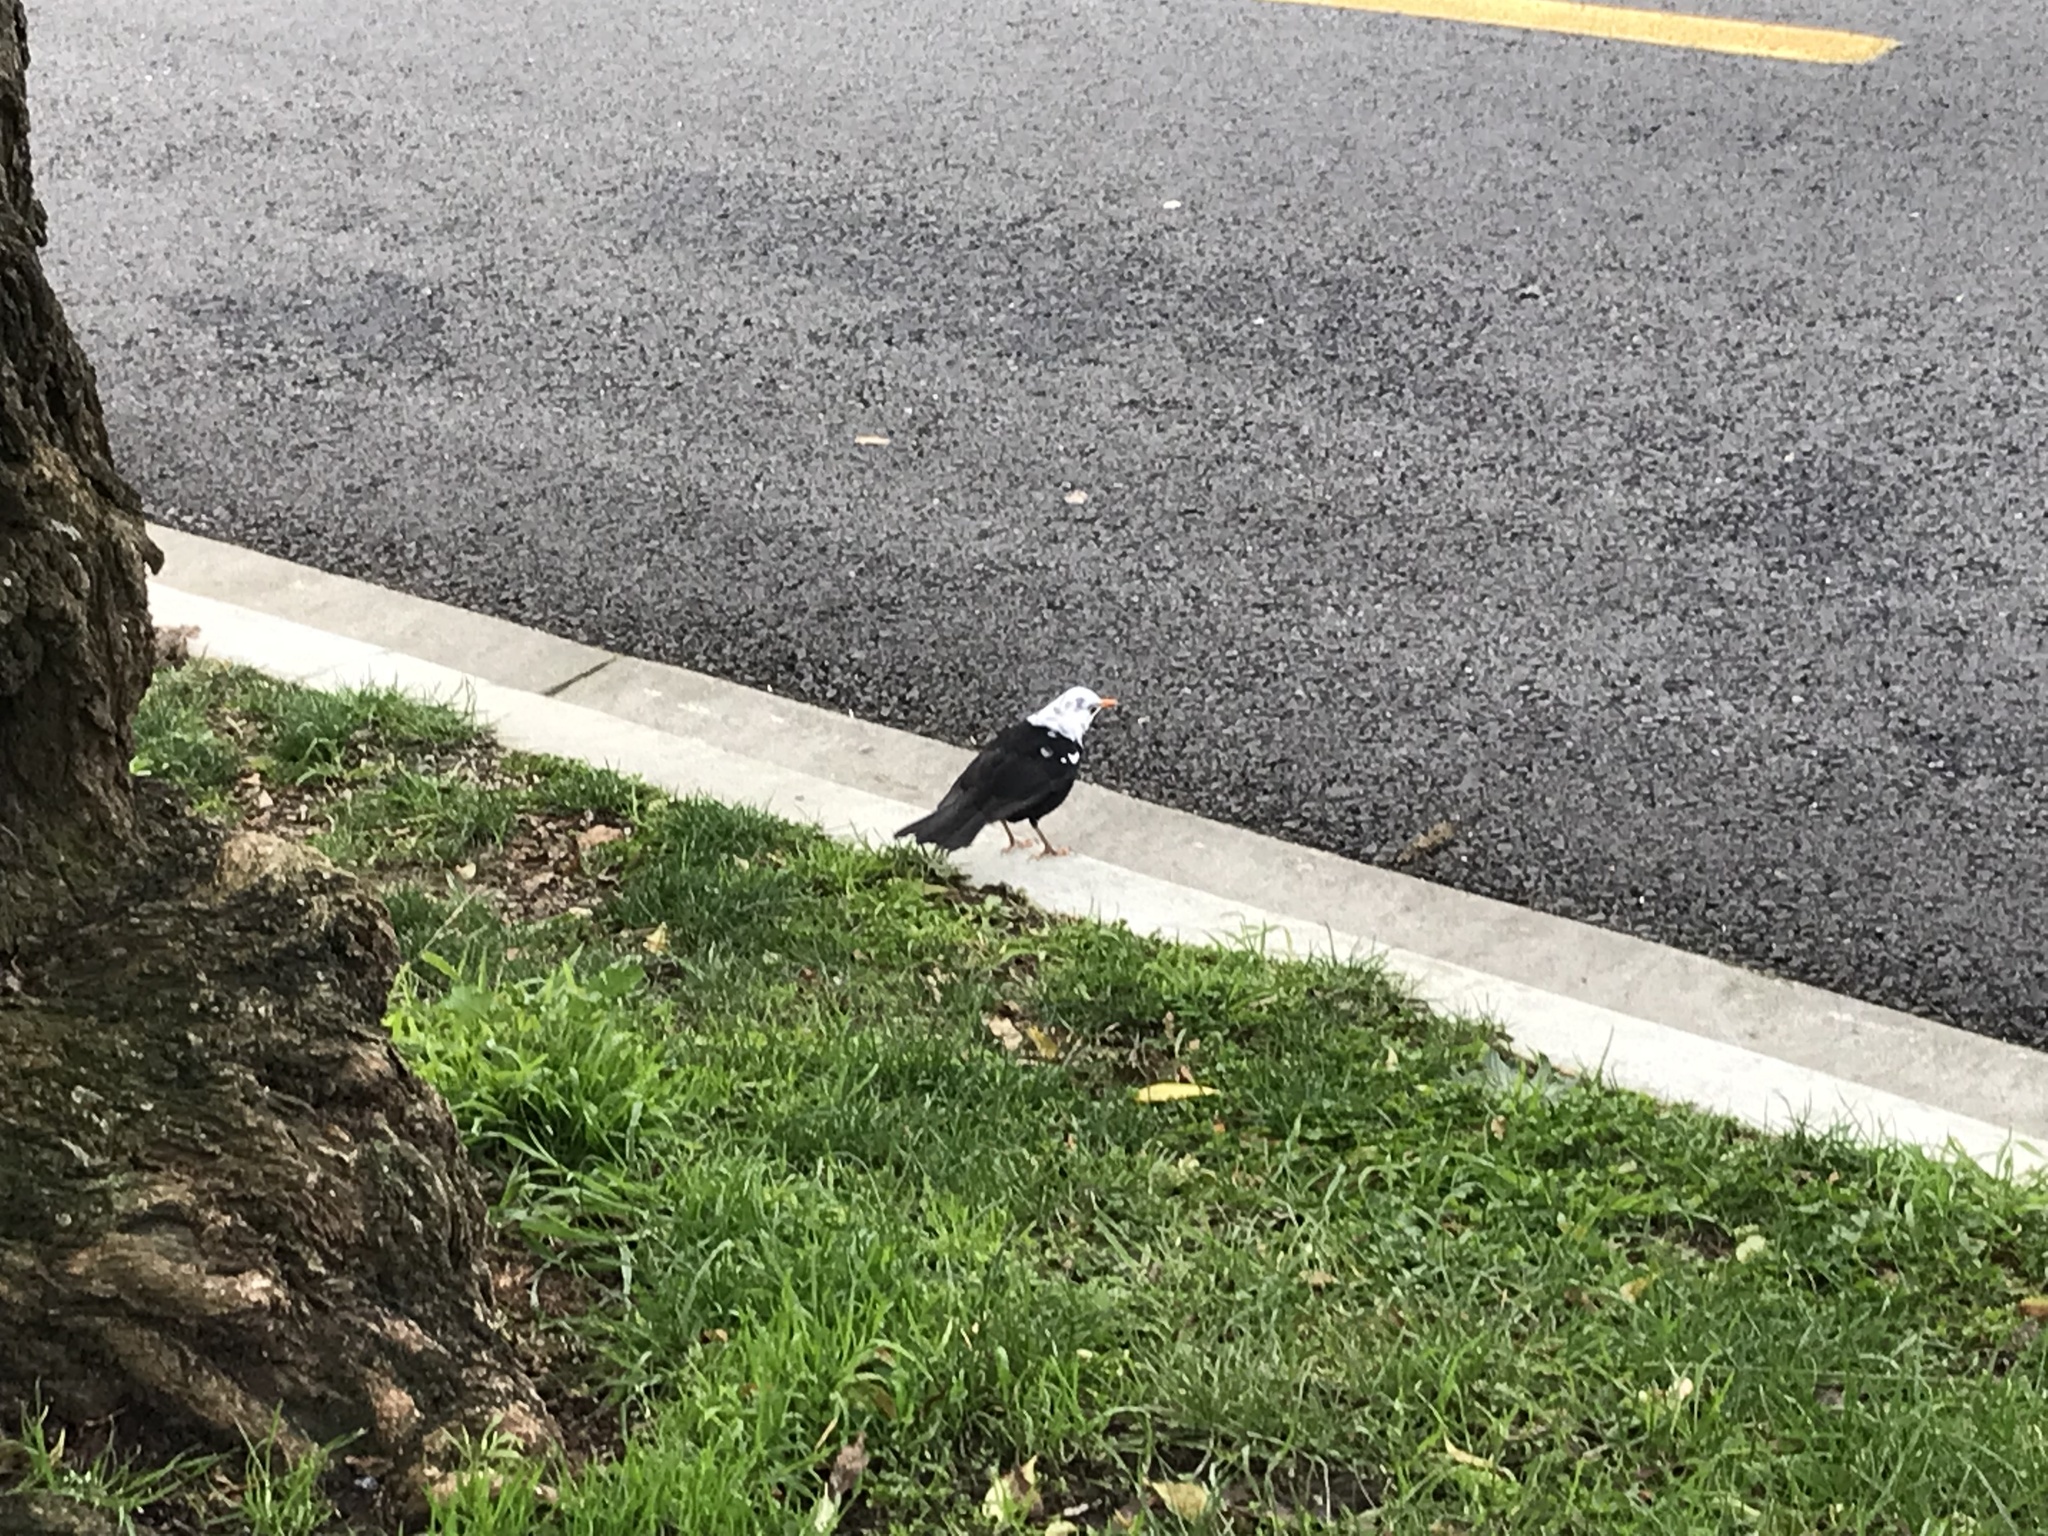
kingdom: Animalia
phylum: Chordata
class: Aves
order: Passeriformes
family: Turdidae
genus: Turdus
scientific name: Turdus merula
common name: Common blackbird
